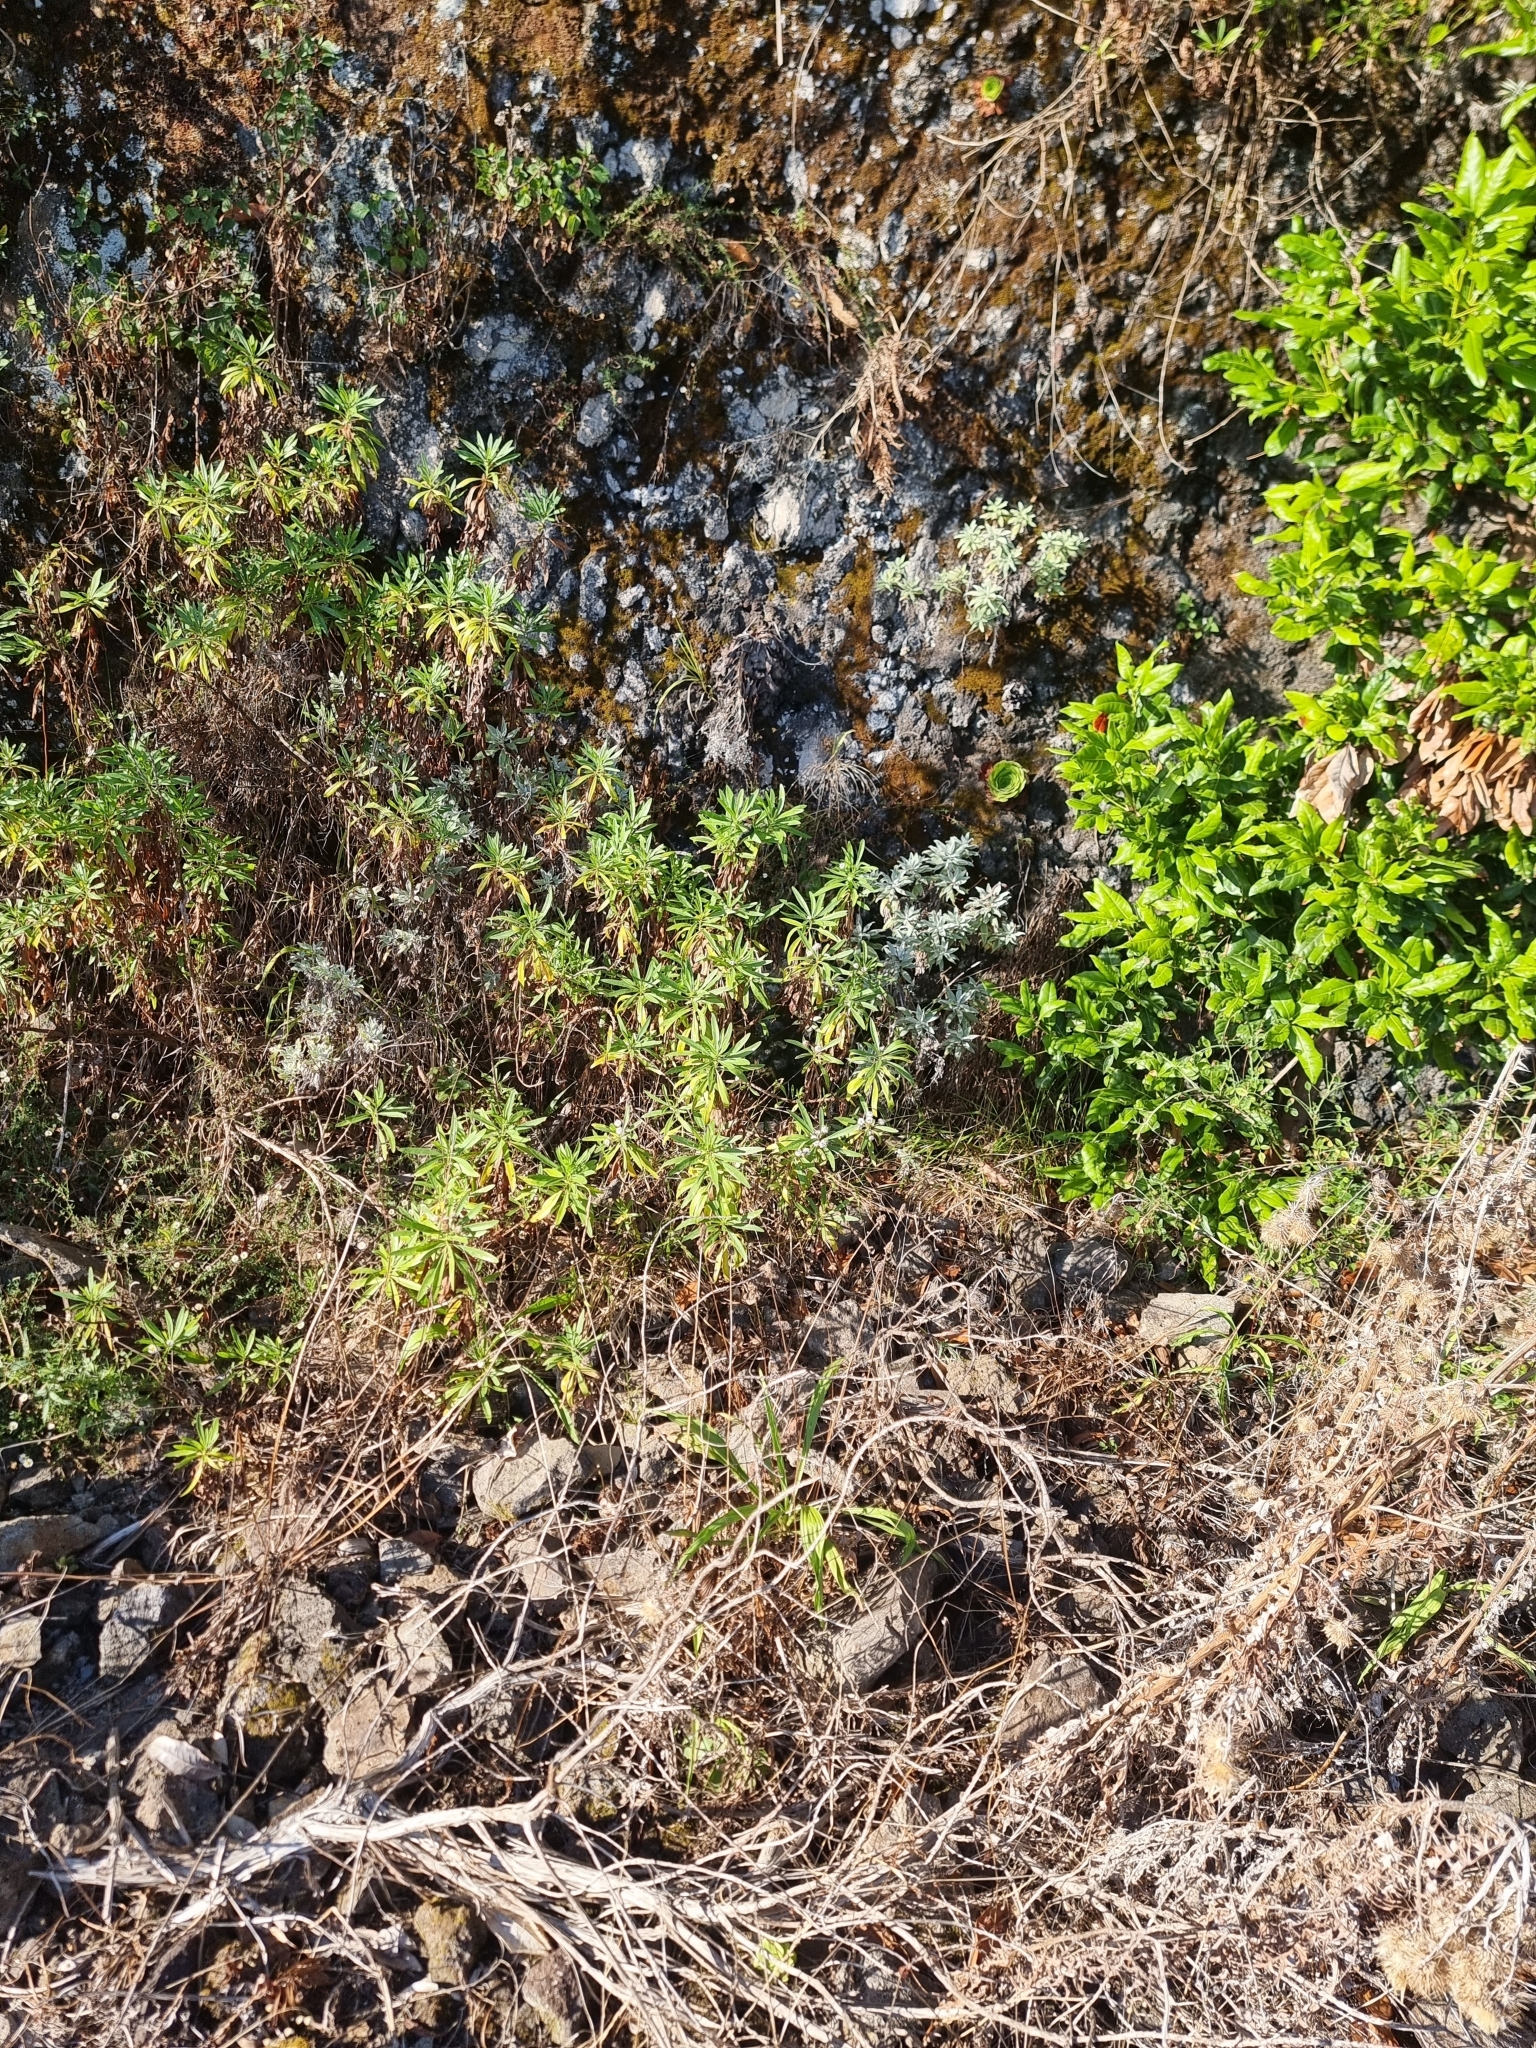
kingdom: Plantae
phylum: Tracheophyta
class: Magnoliopsida
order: Lamiales
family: Plantaginaceae
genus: Globularia
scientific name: Globularia salicina
